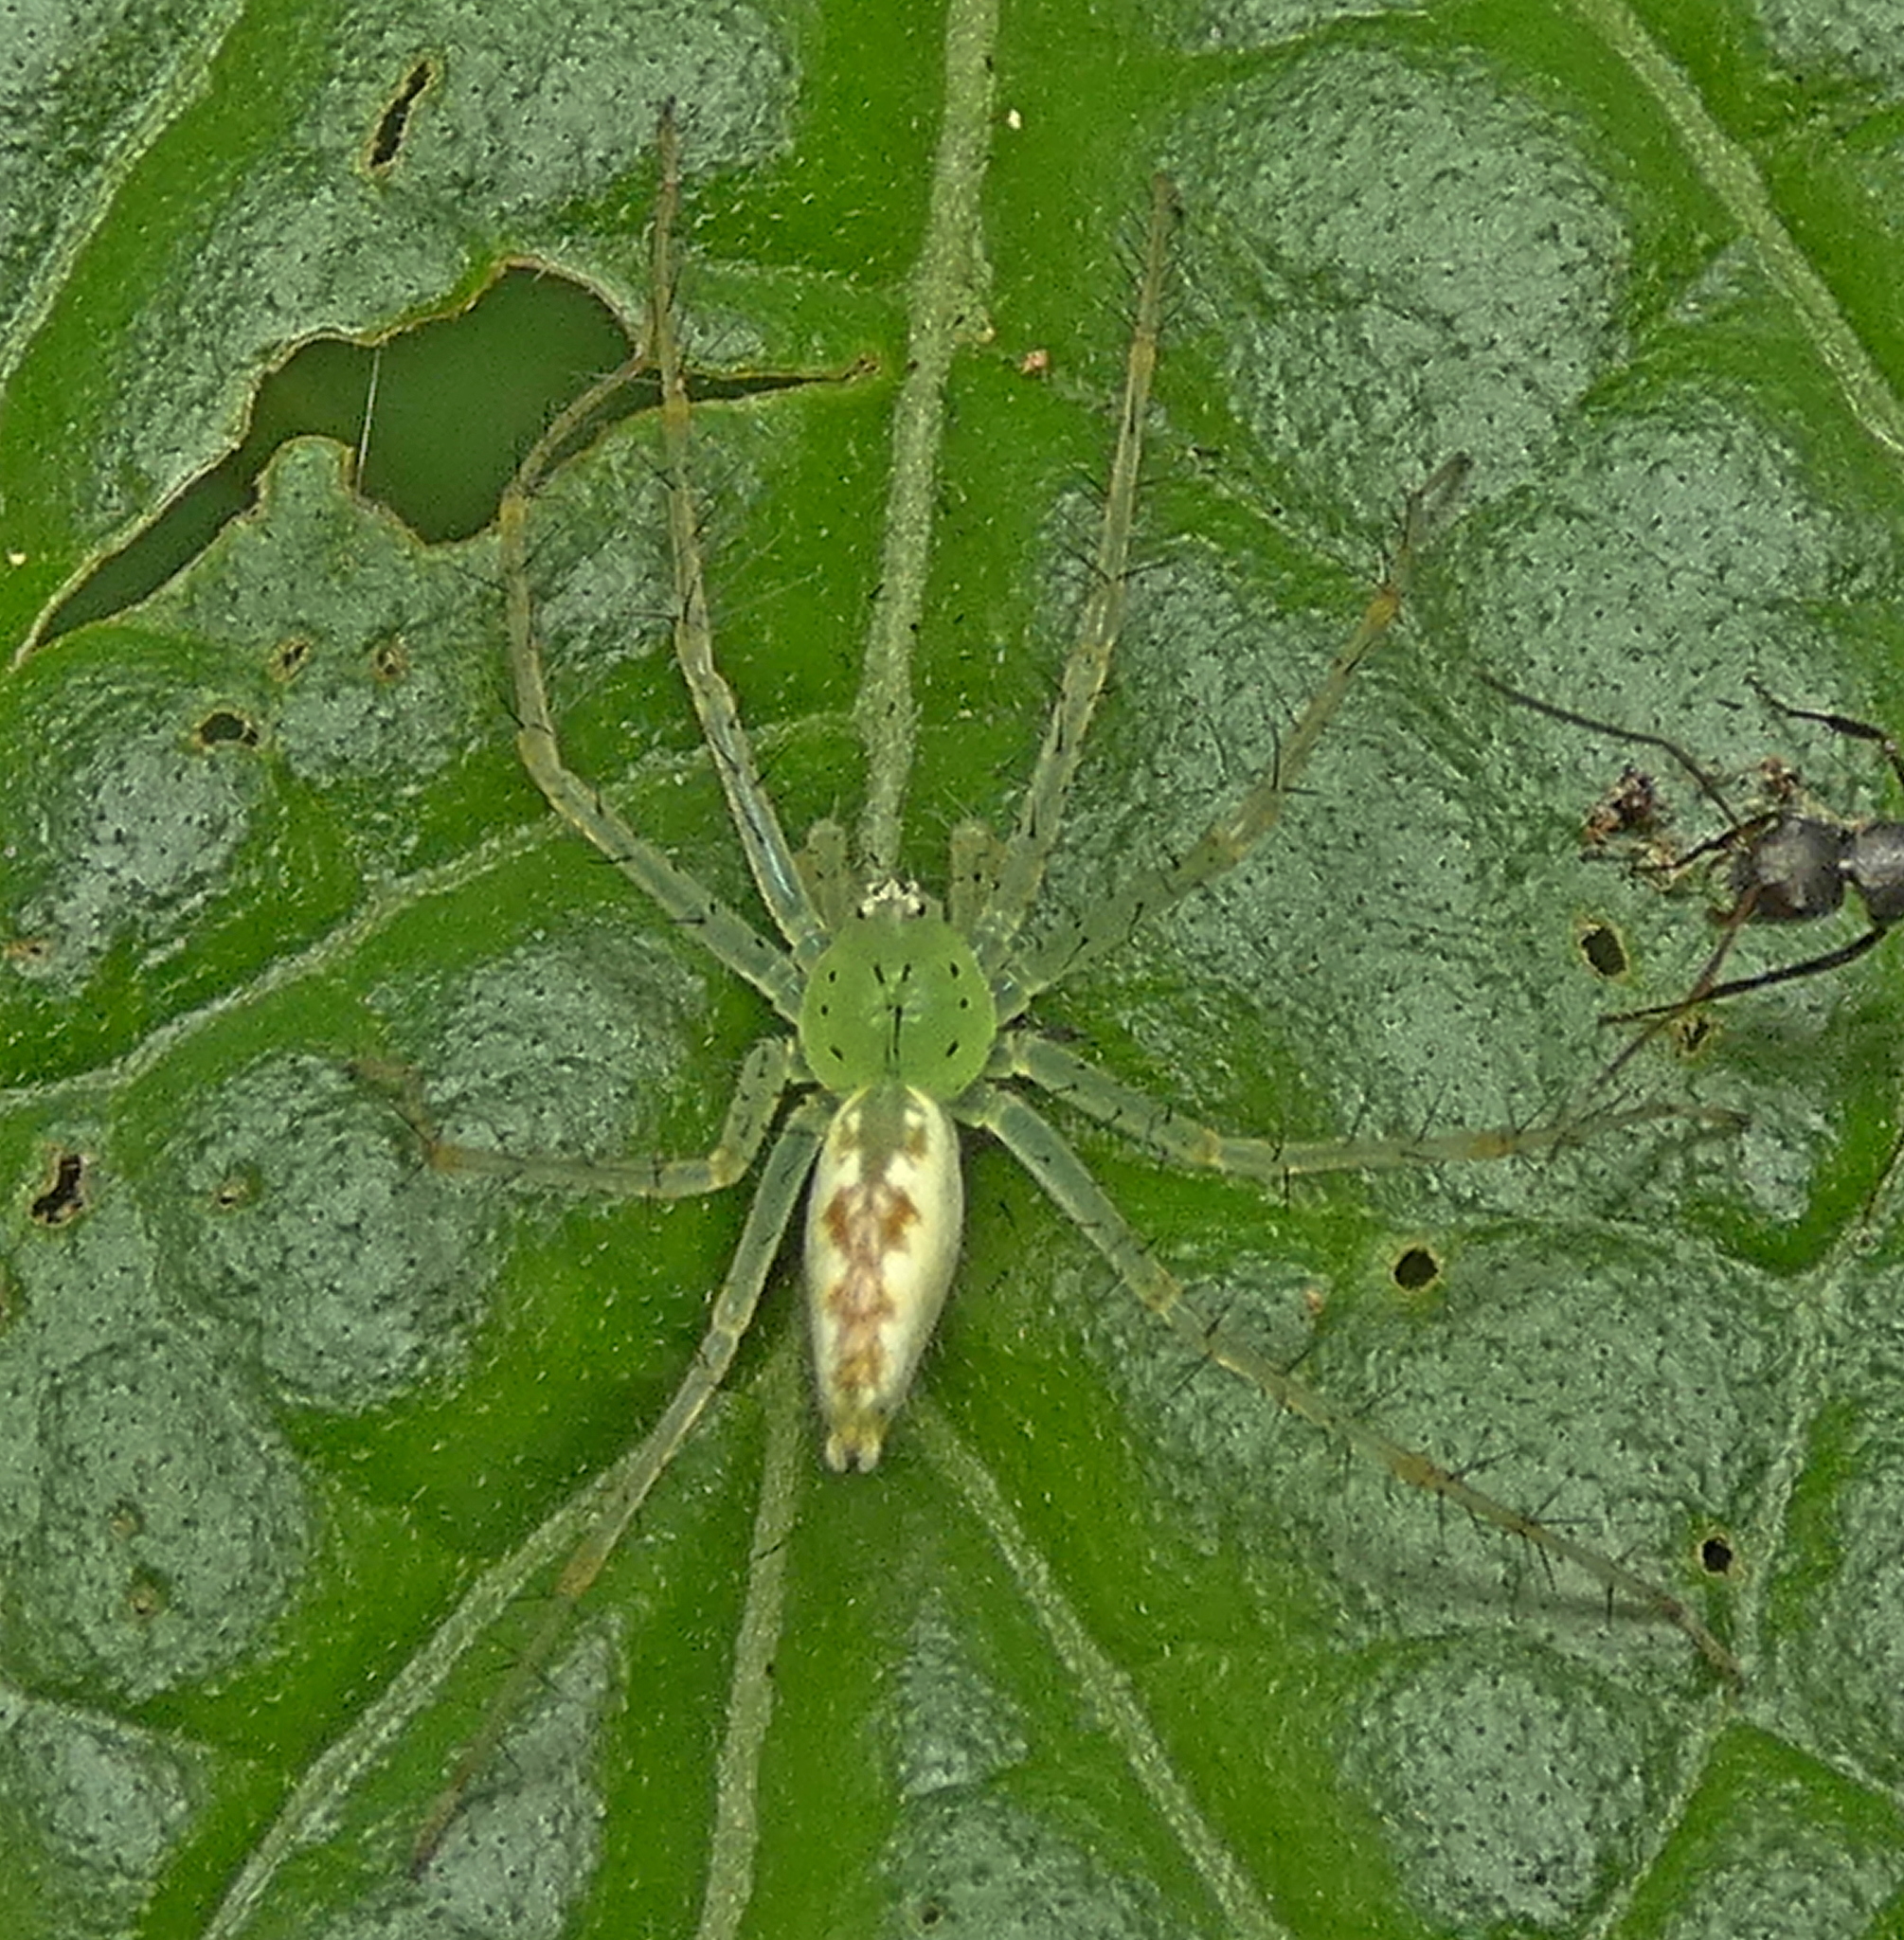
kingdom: Animalia
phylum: Arthropoda
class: Arachnida
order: Araneae
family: Pisauridae
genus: Architis
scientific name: Architis spinipes
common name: Nursery web spiders
